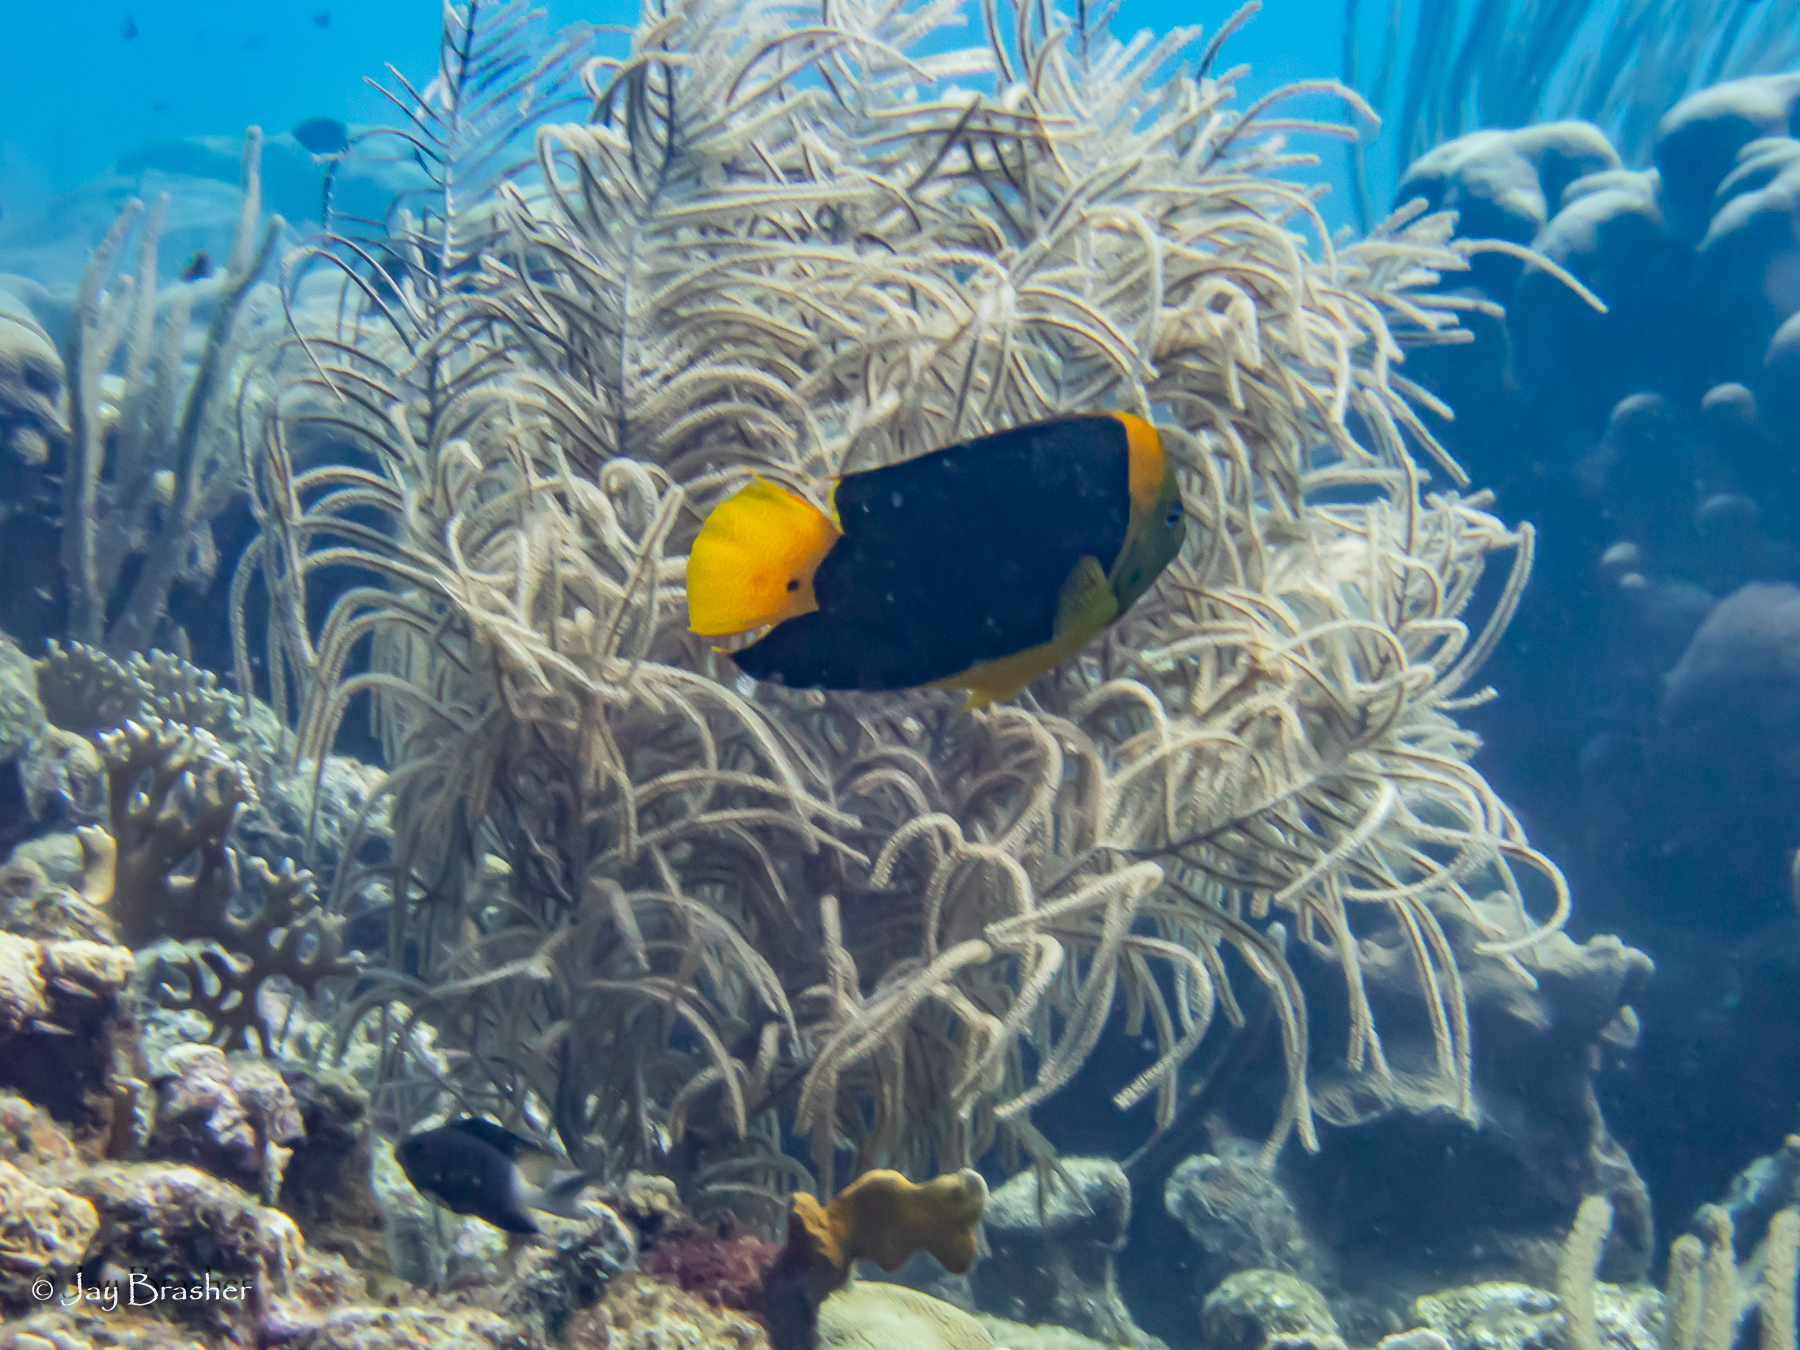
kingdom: Animalia
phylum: Chordata
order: Perciformes
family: Pomacentridae
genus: Stegastes
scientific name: Stegastes partitus
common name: Bicolor damselfish
